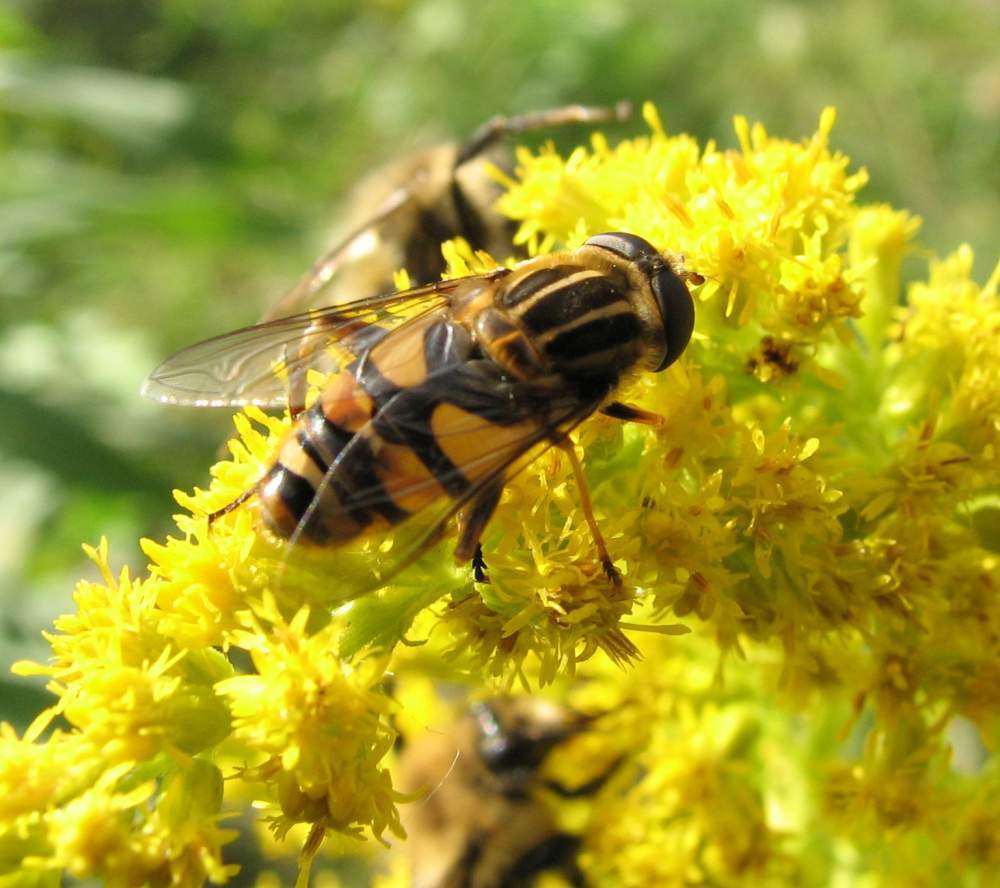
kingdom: Animalia
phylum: Arthropoda
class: Insecta
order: Diptera
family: Syrphidae
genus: Helophilus
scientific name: Helophilus fasciatus
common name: Narrow-headed marsh fly
